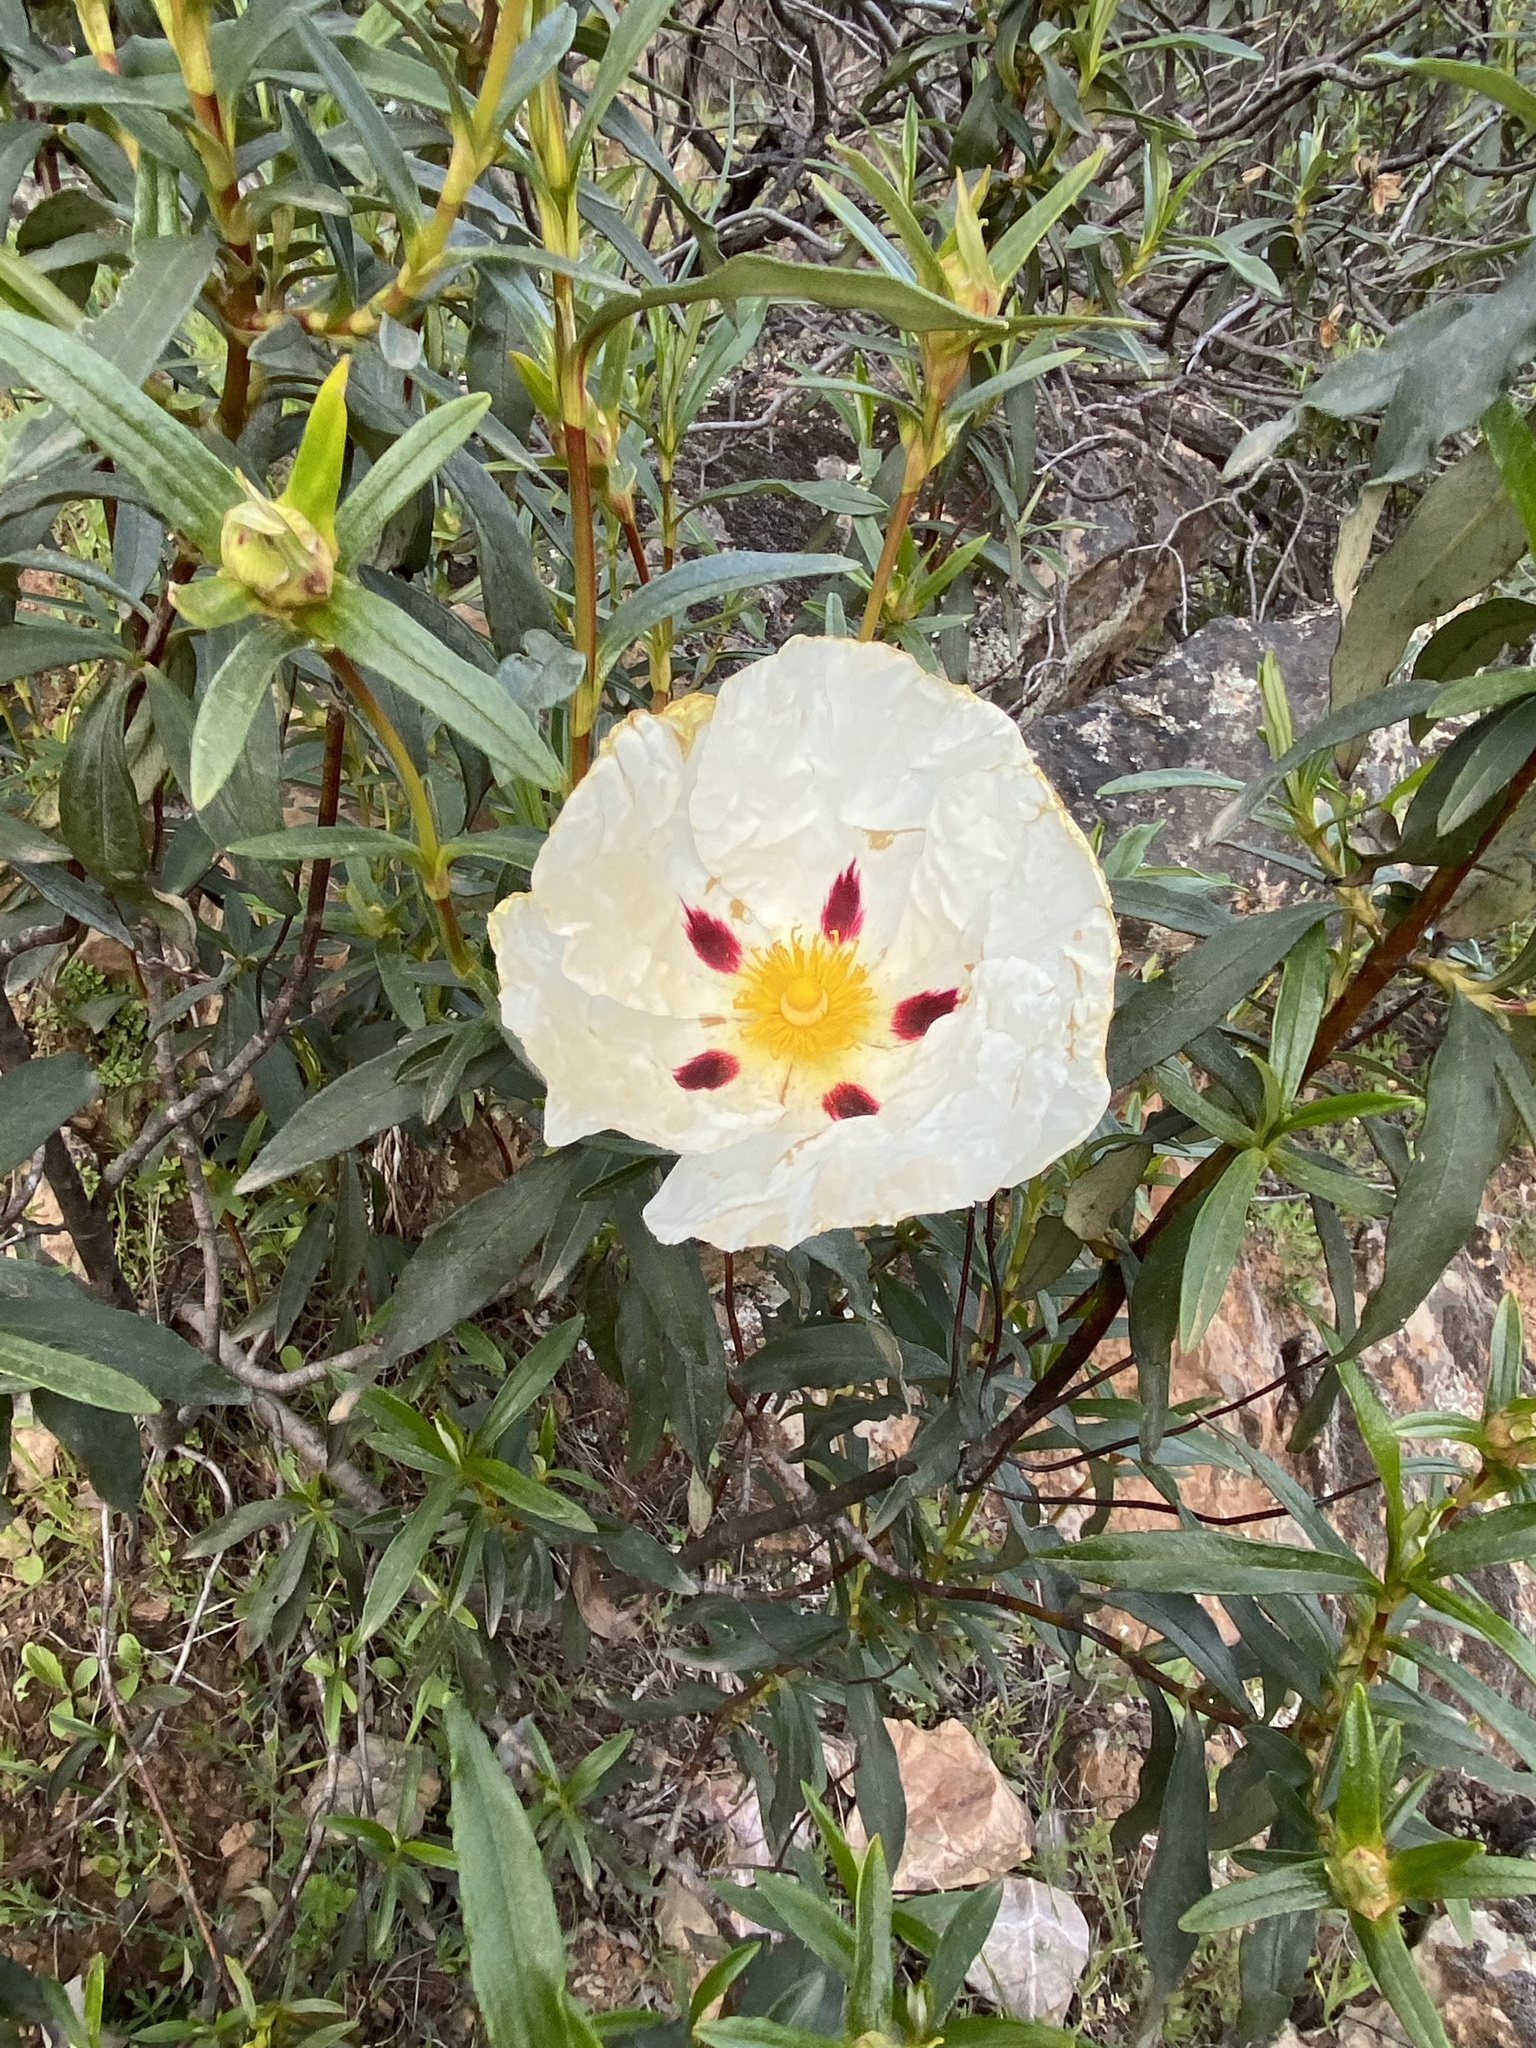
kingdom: Plantae
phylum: Tracheophyta
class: Magnoliopsida
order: Malvales
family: Cistaceae
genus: Cistus
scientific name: Cistus ladanifer
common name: Common gum cistus
